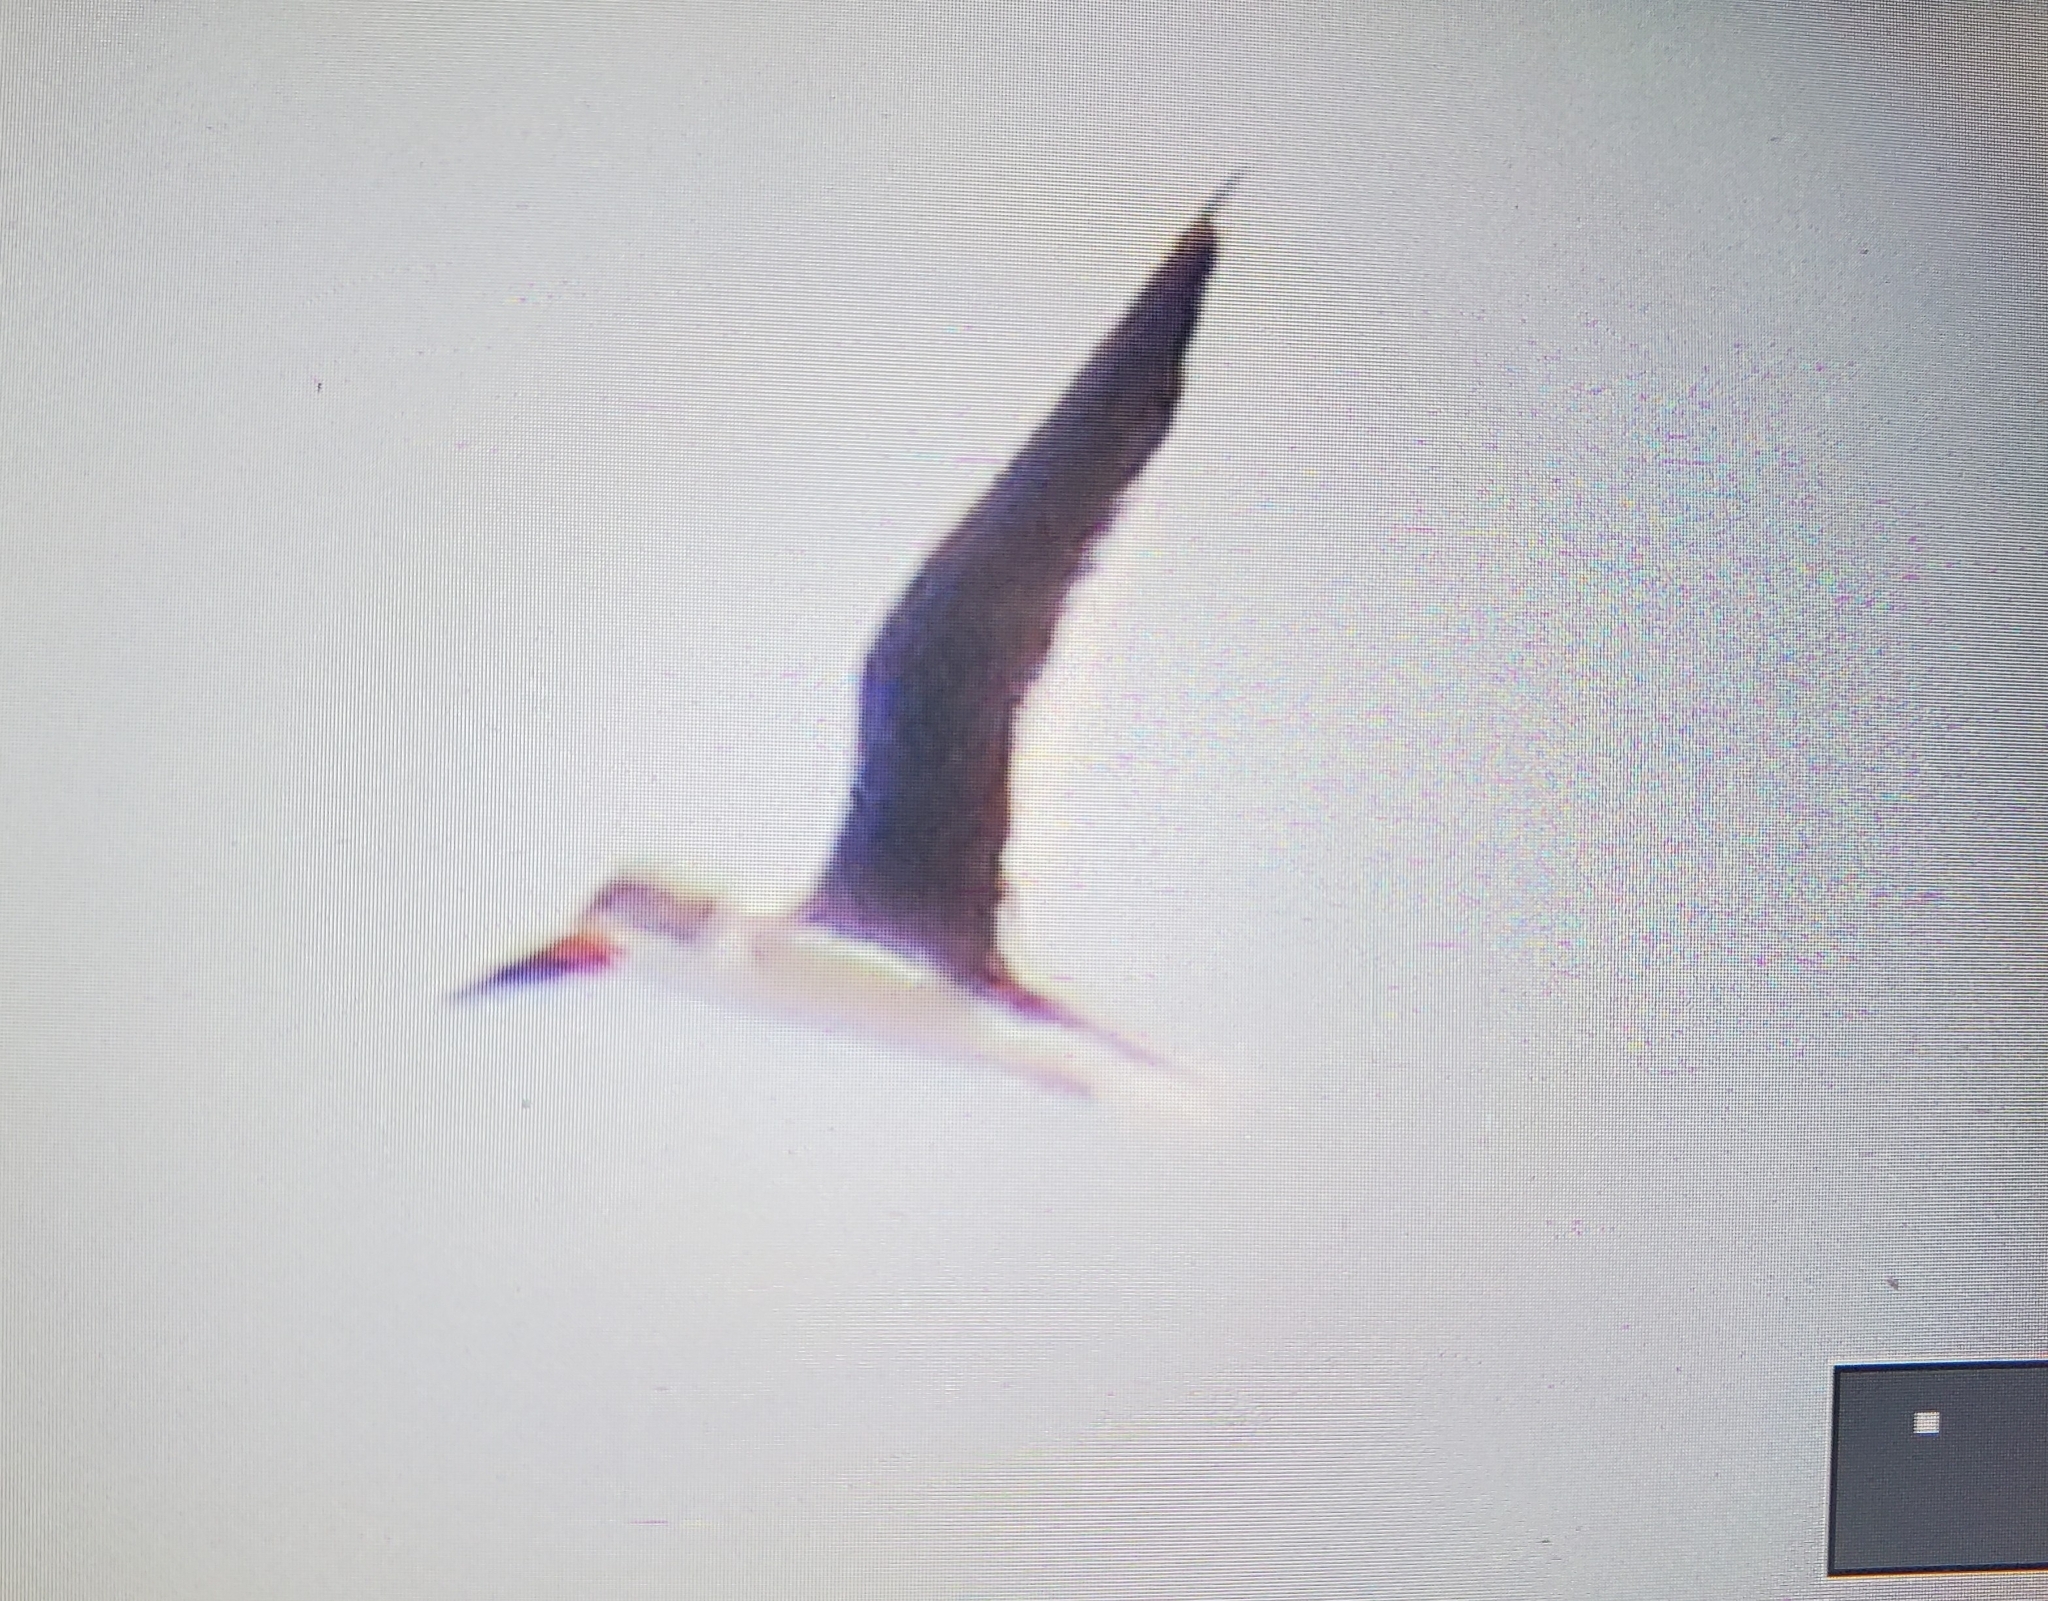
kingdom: Animalia
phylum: Chordata
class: Aves
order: Charadriiformes
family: Laridae
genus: Rynchops
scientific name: Rynchops niger
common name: Black skimmer
